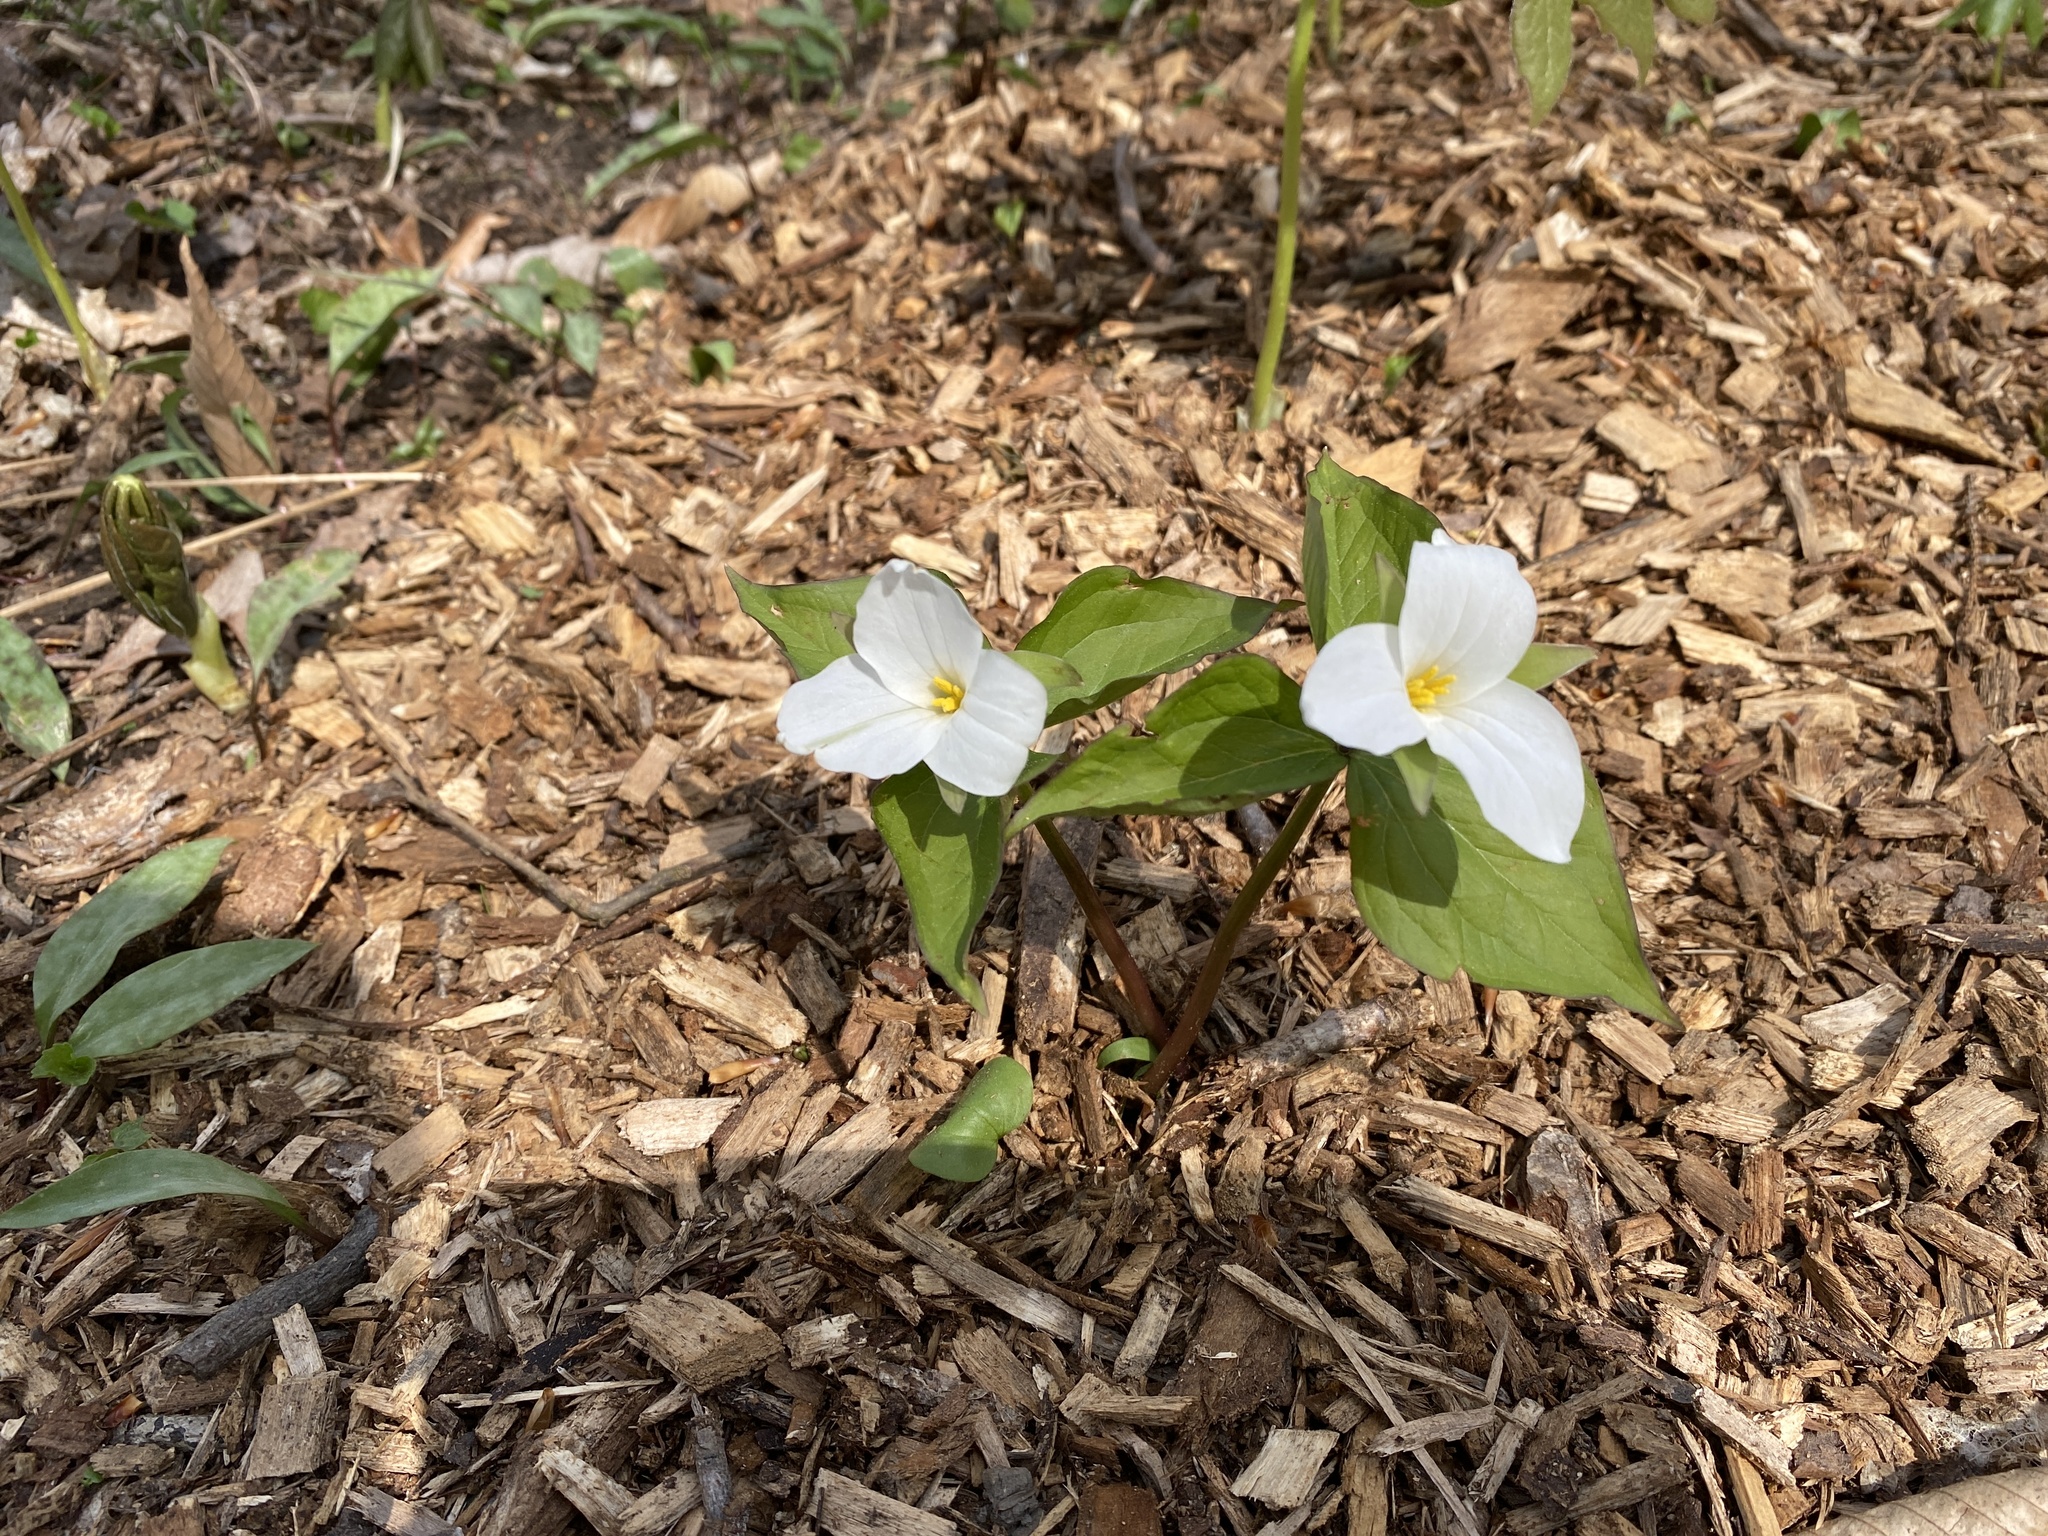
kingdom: Plantae
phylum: Tracheophyta
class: Liliopsida
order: Liliales
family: Melanthiaceae
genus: Trillium
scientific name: Trillium grandiflorum
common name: Great white trillium
